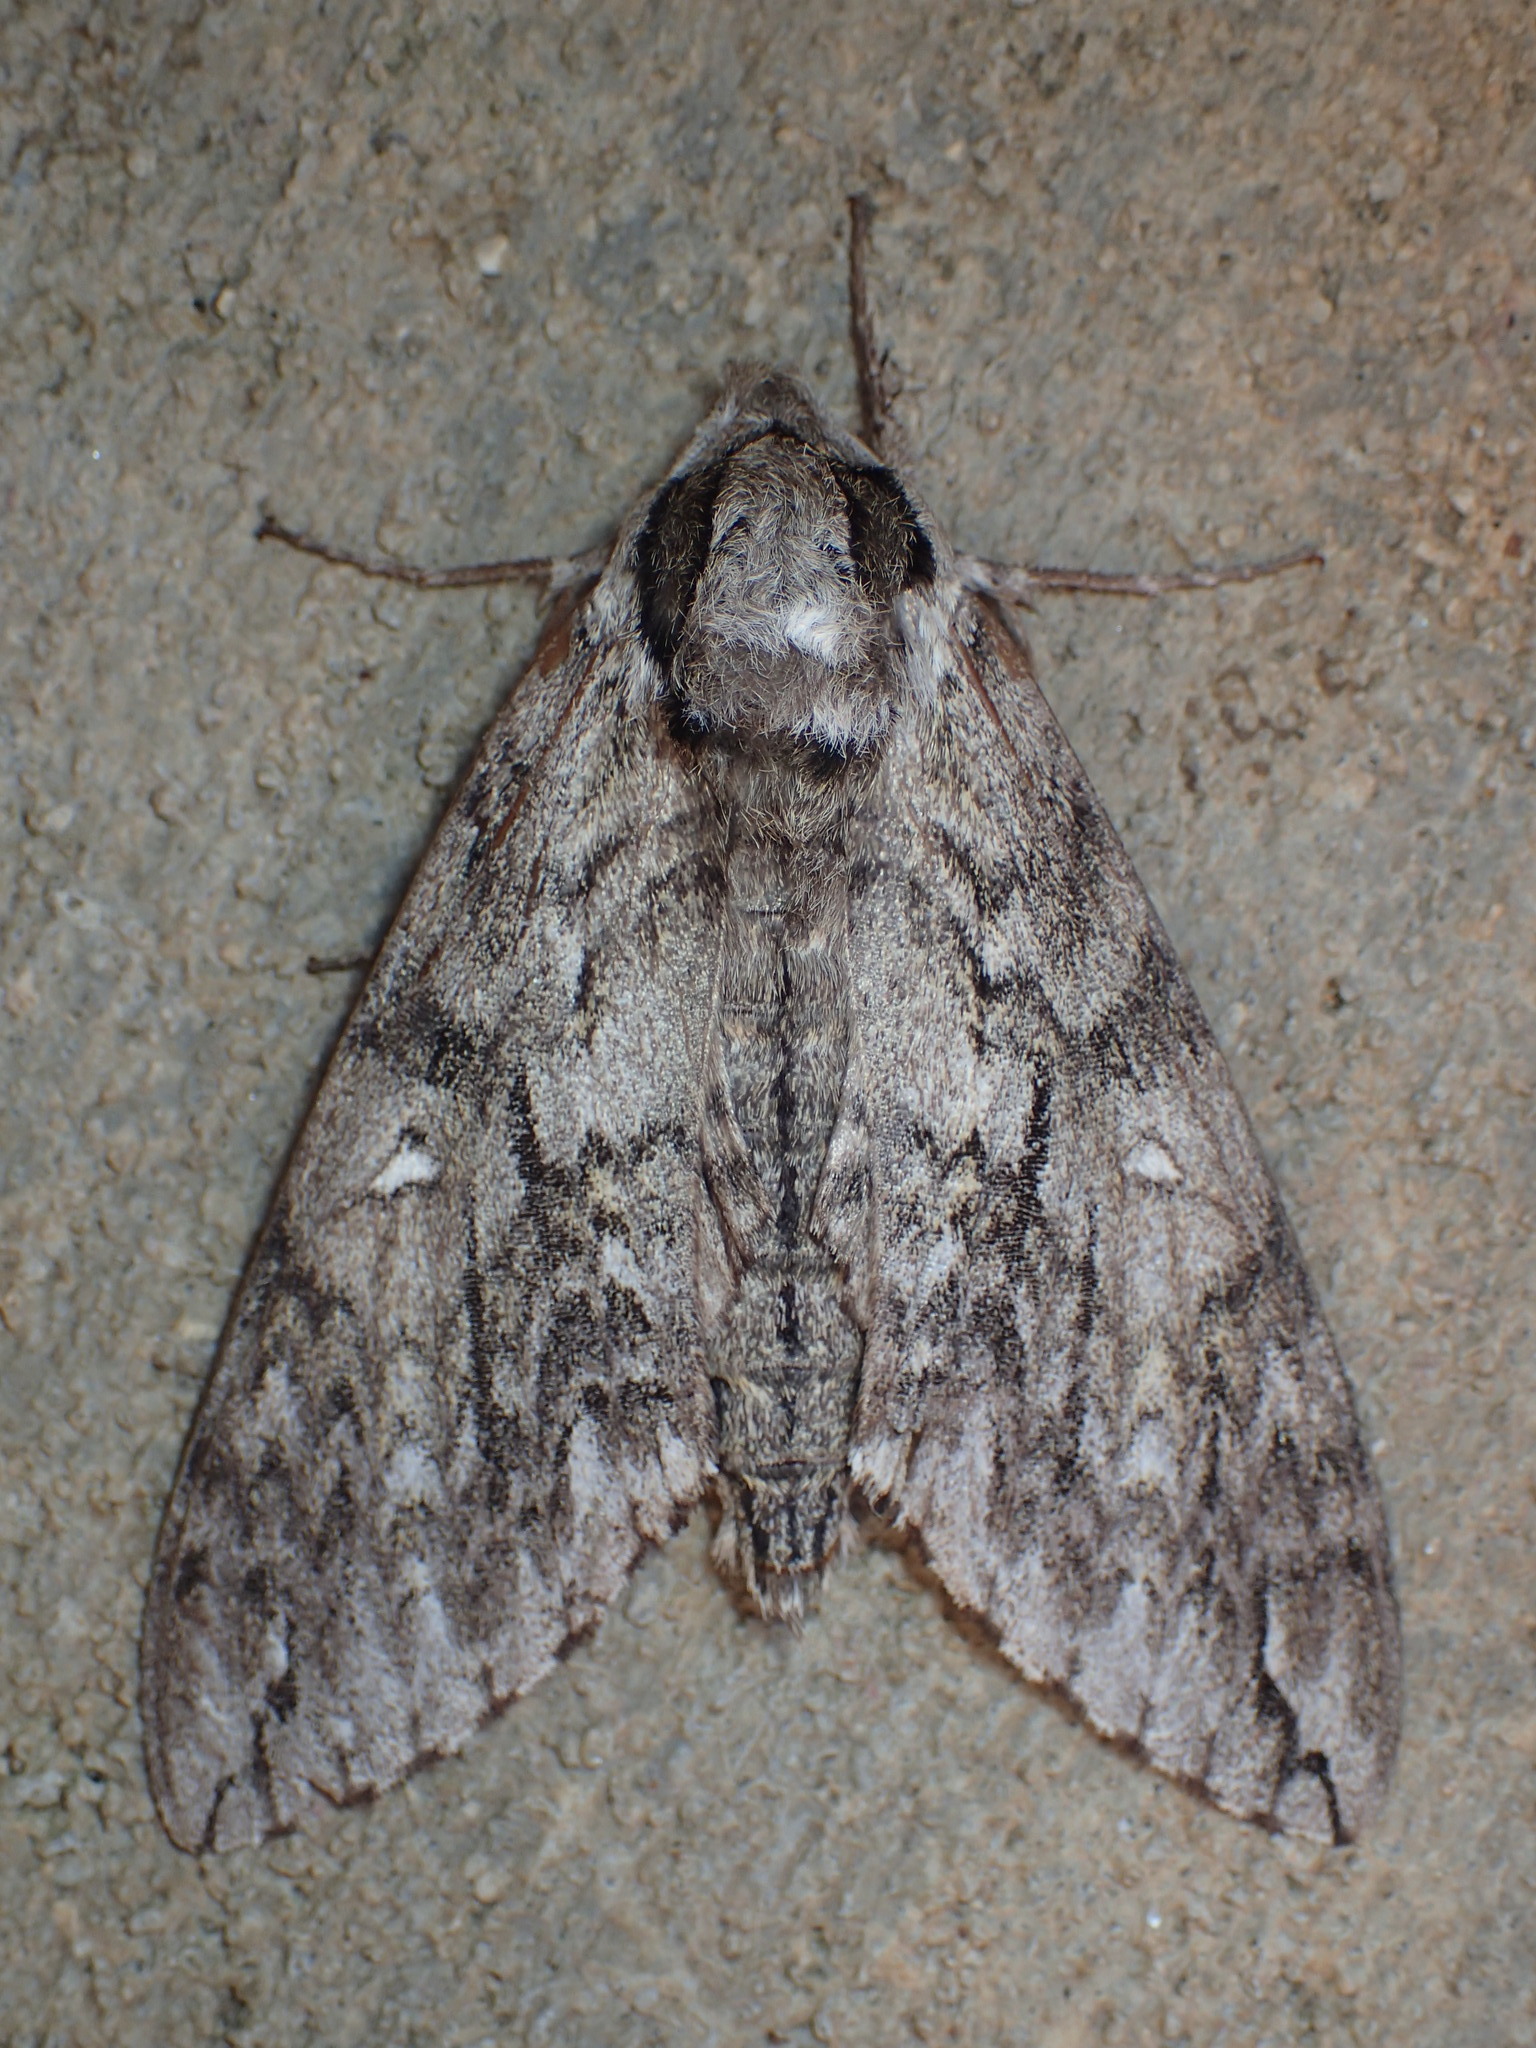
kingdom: Animalia
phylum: Arthropoda
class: Insecta
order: Lepidoptera
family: Sphingidae
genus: Ceratomia
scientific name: Ceratomia undulosa
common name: Waved sphinx
